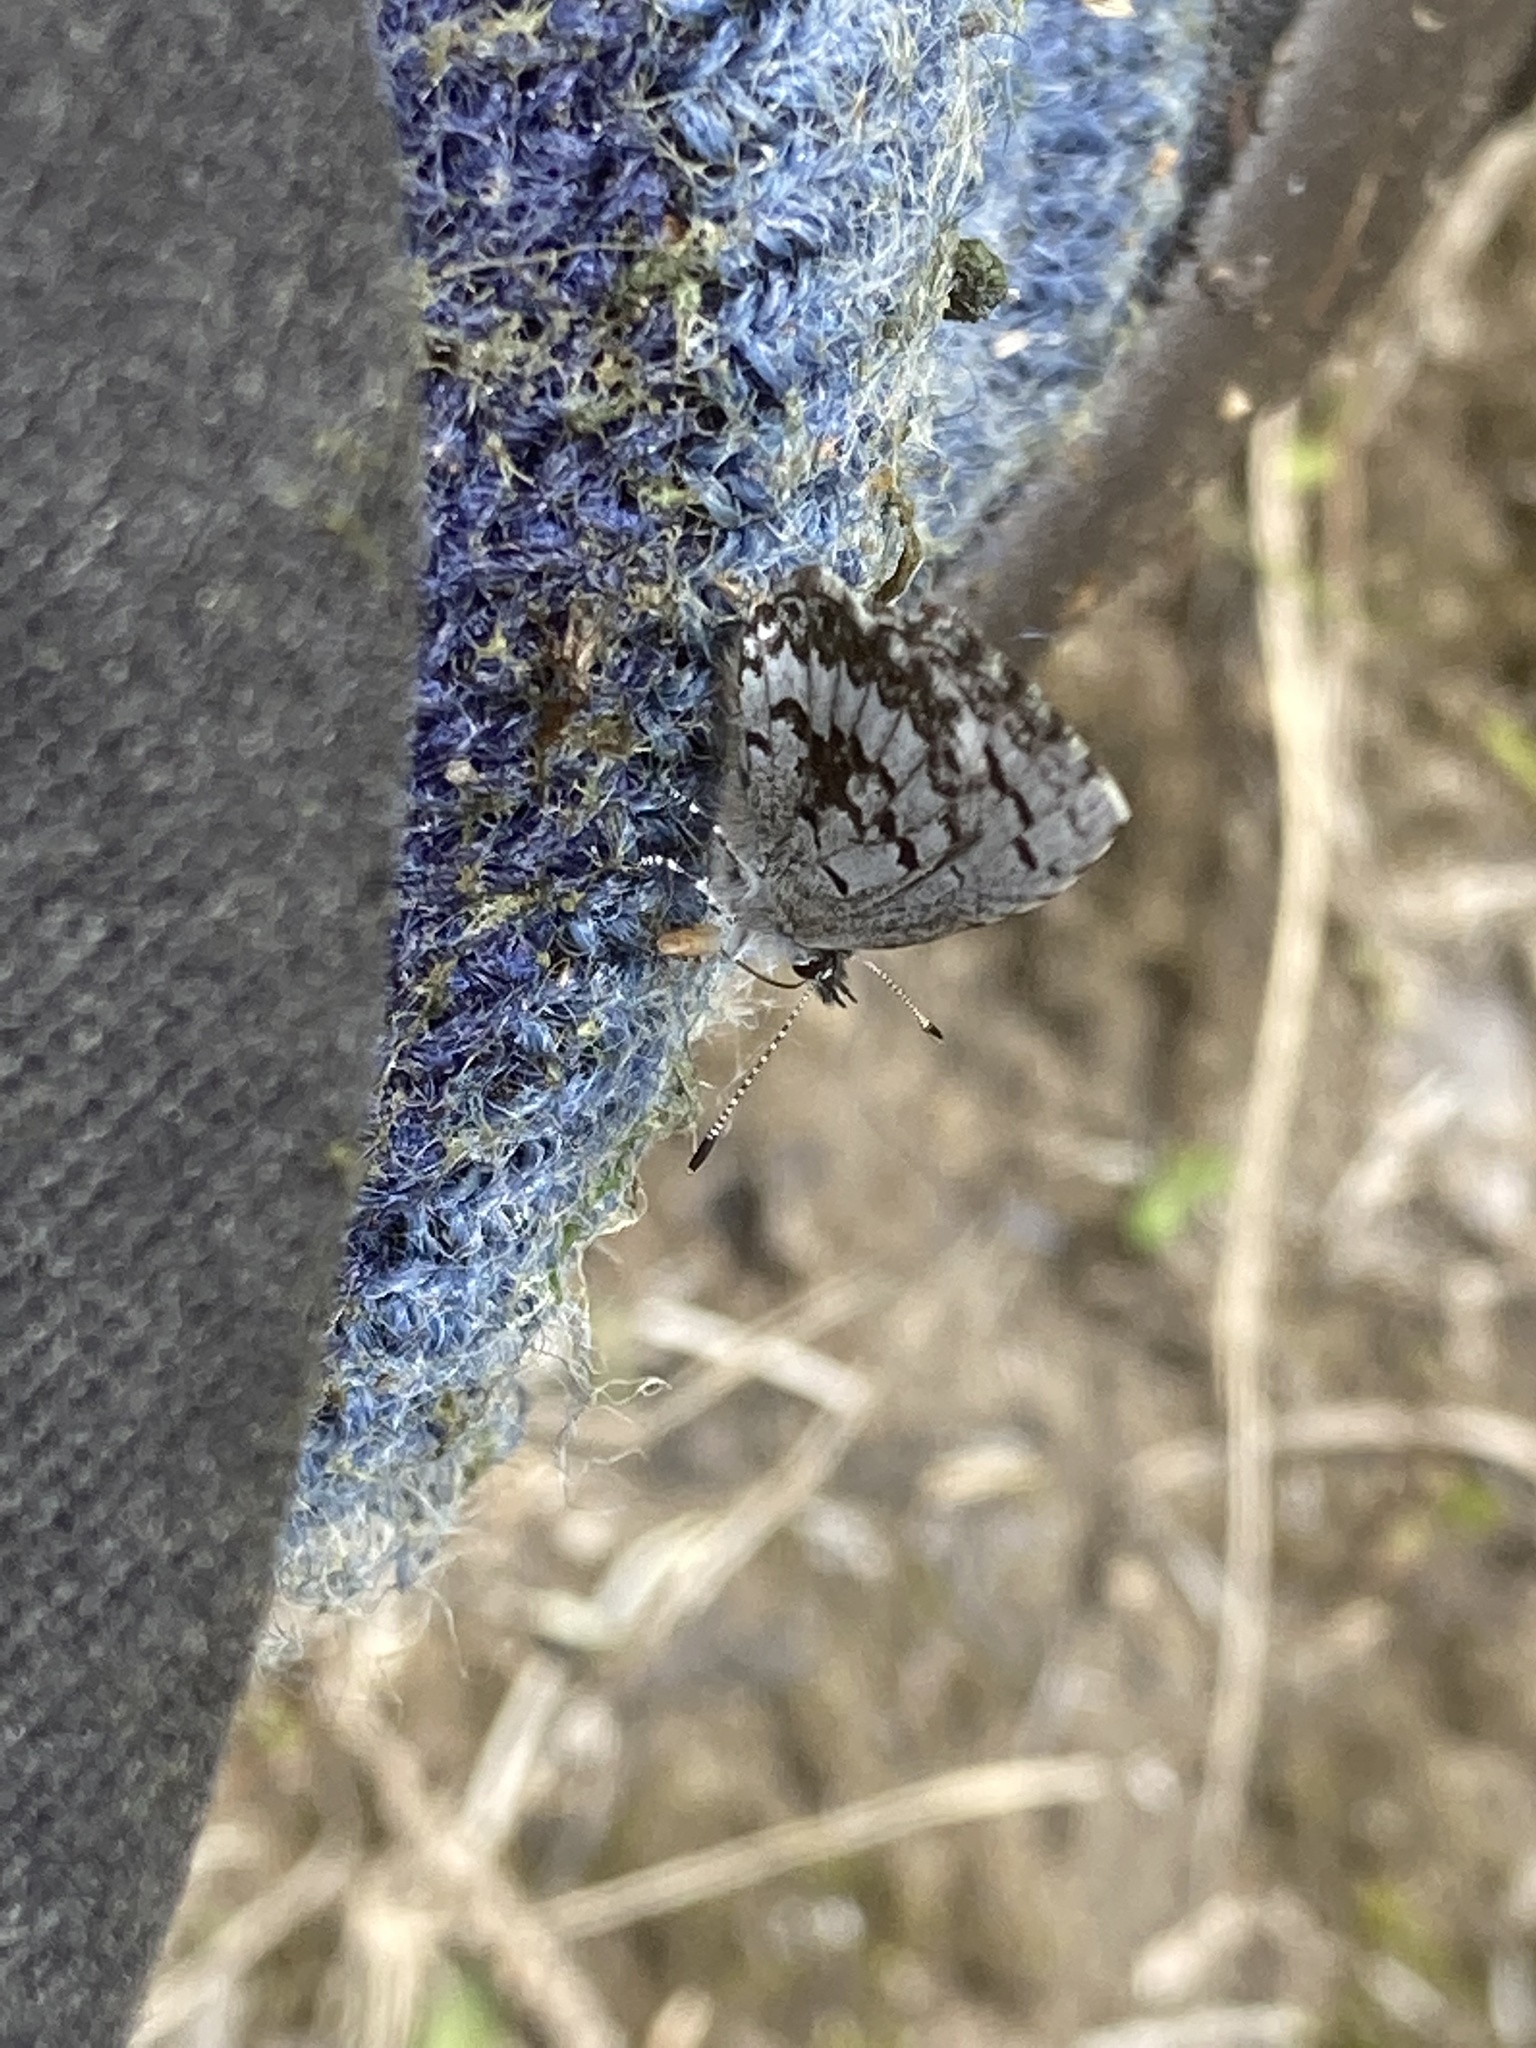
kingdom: Animalia
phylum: Arthropoda
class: Insecta
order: Lepidoptera
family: Lycaenidae
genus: Celastrina
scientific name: Celastrina lucia
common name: Lucia azure
